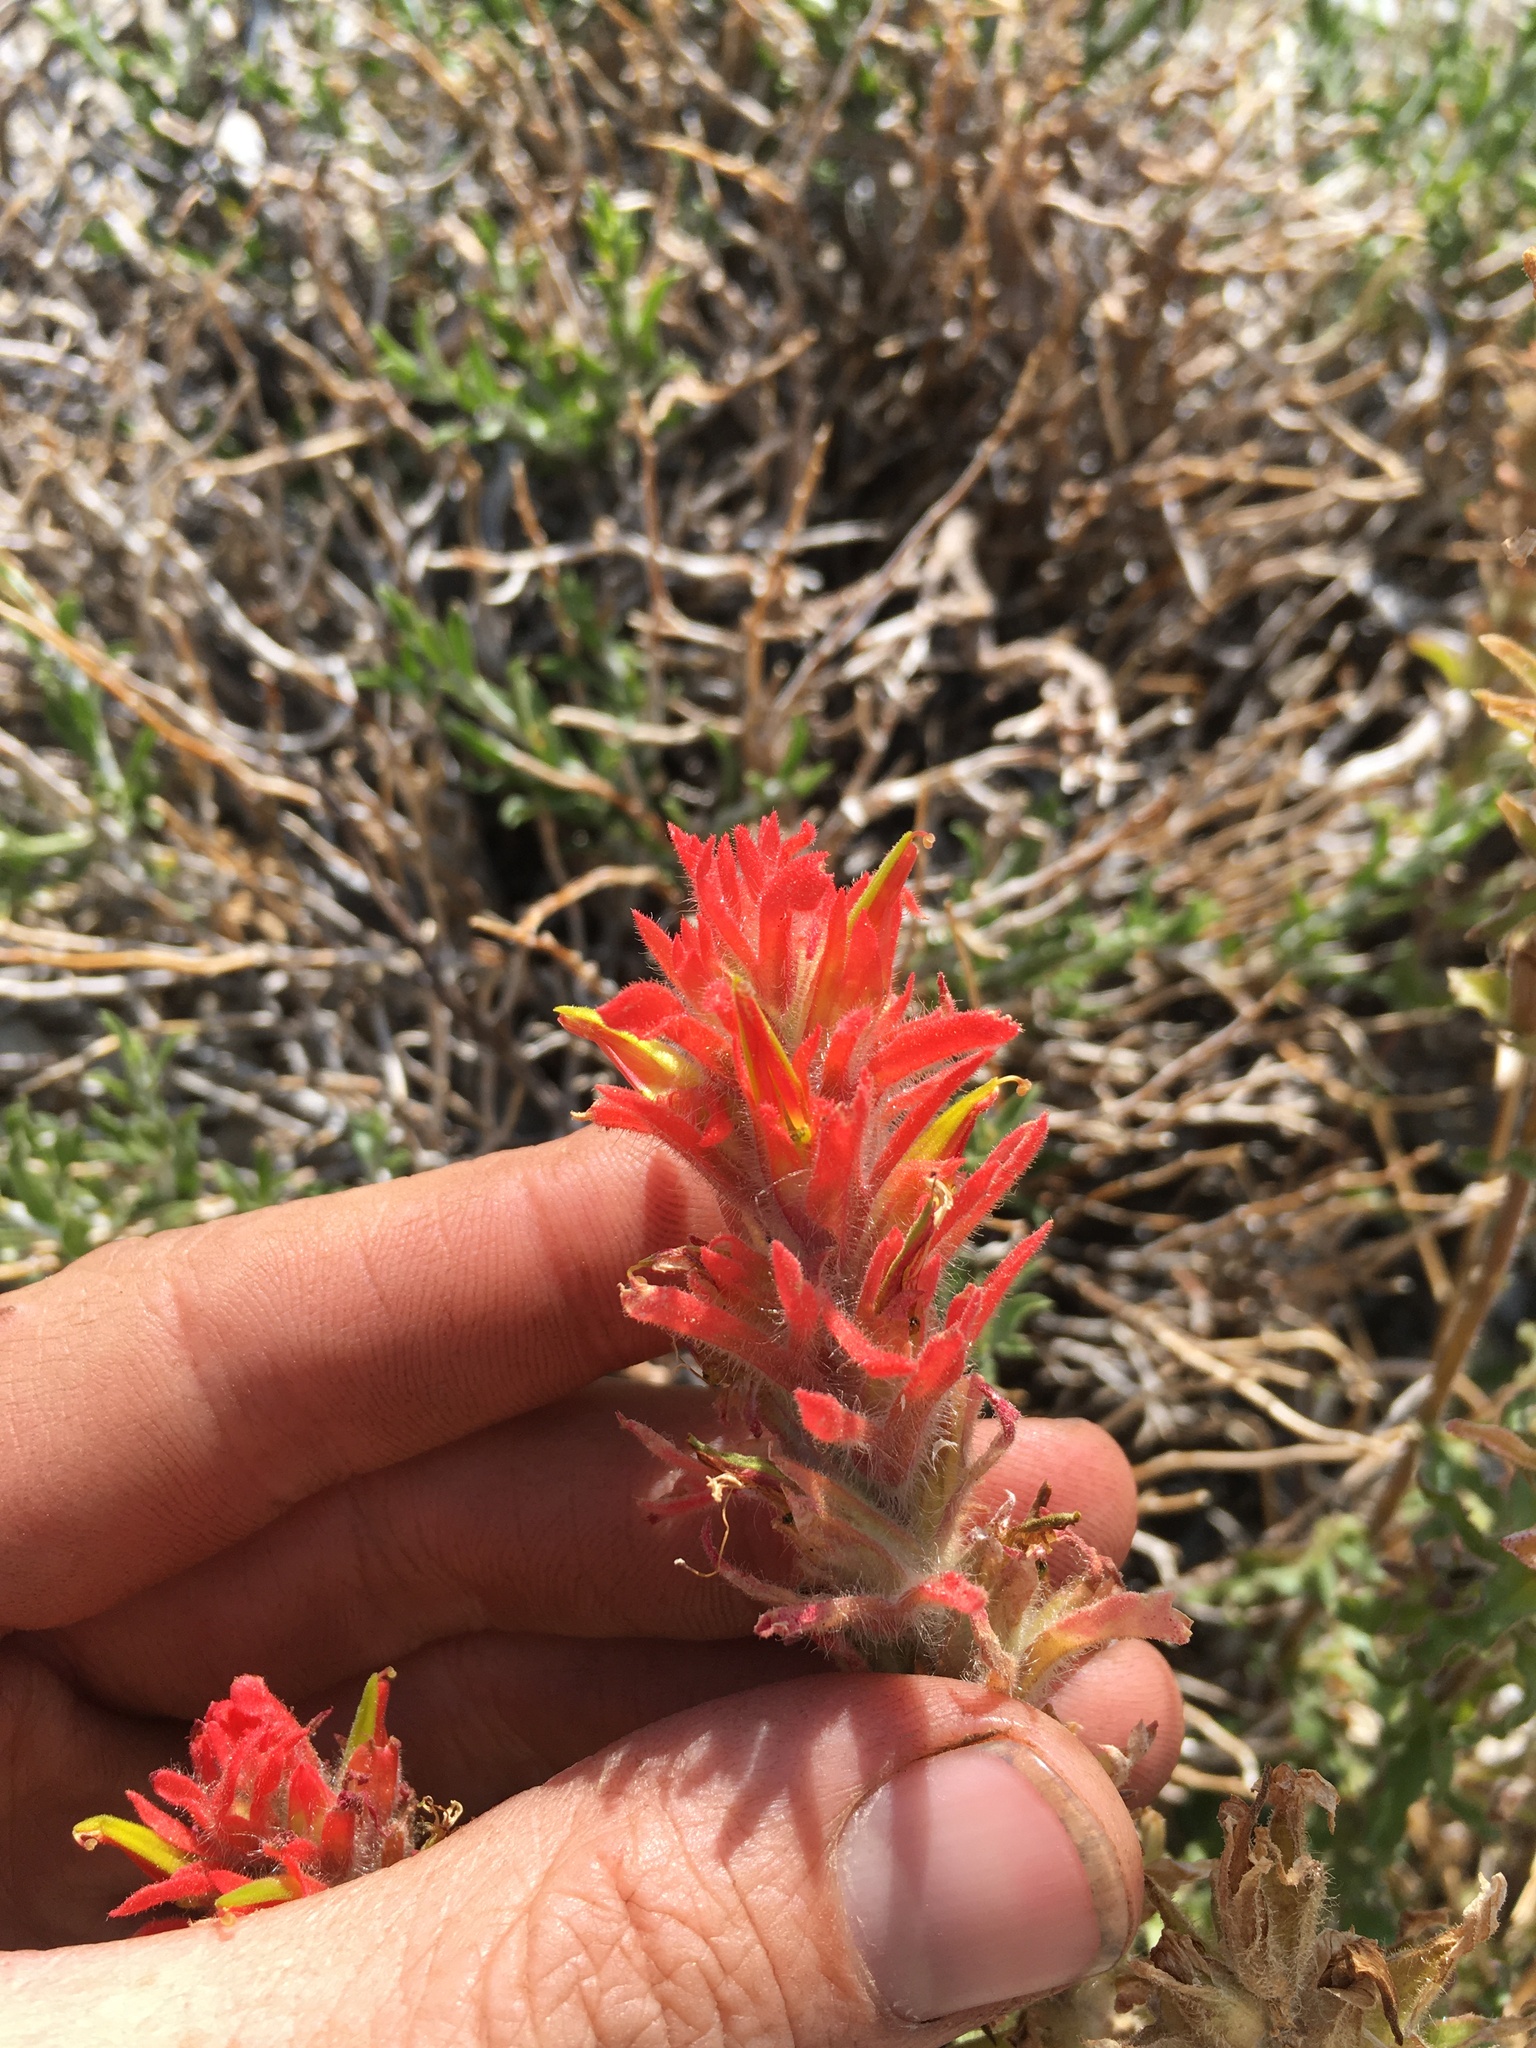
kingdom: Plantae
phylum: Tracheophyta
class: Magnoliopsida
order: Lamiales
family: Orobanchaceae
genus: Castilleja
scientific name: Castilleja applegatei
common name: Wavy-leaf paintbrush
